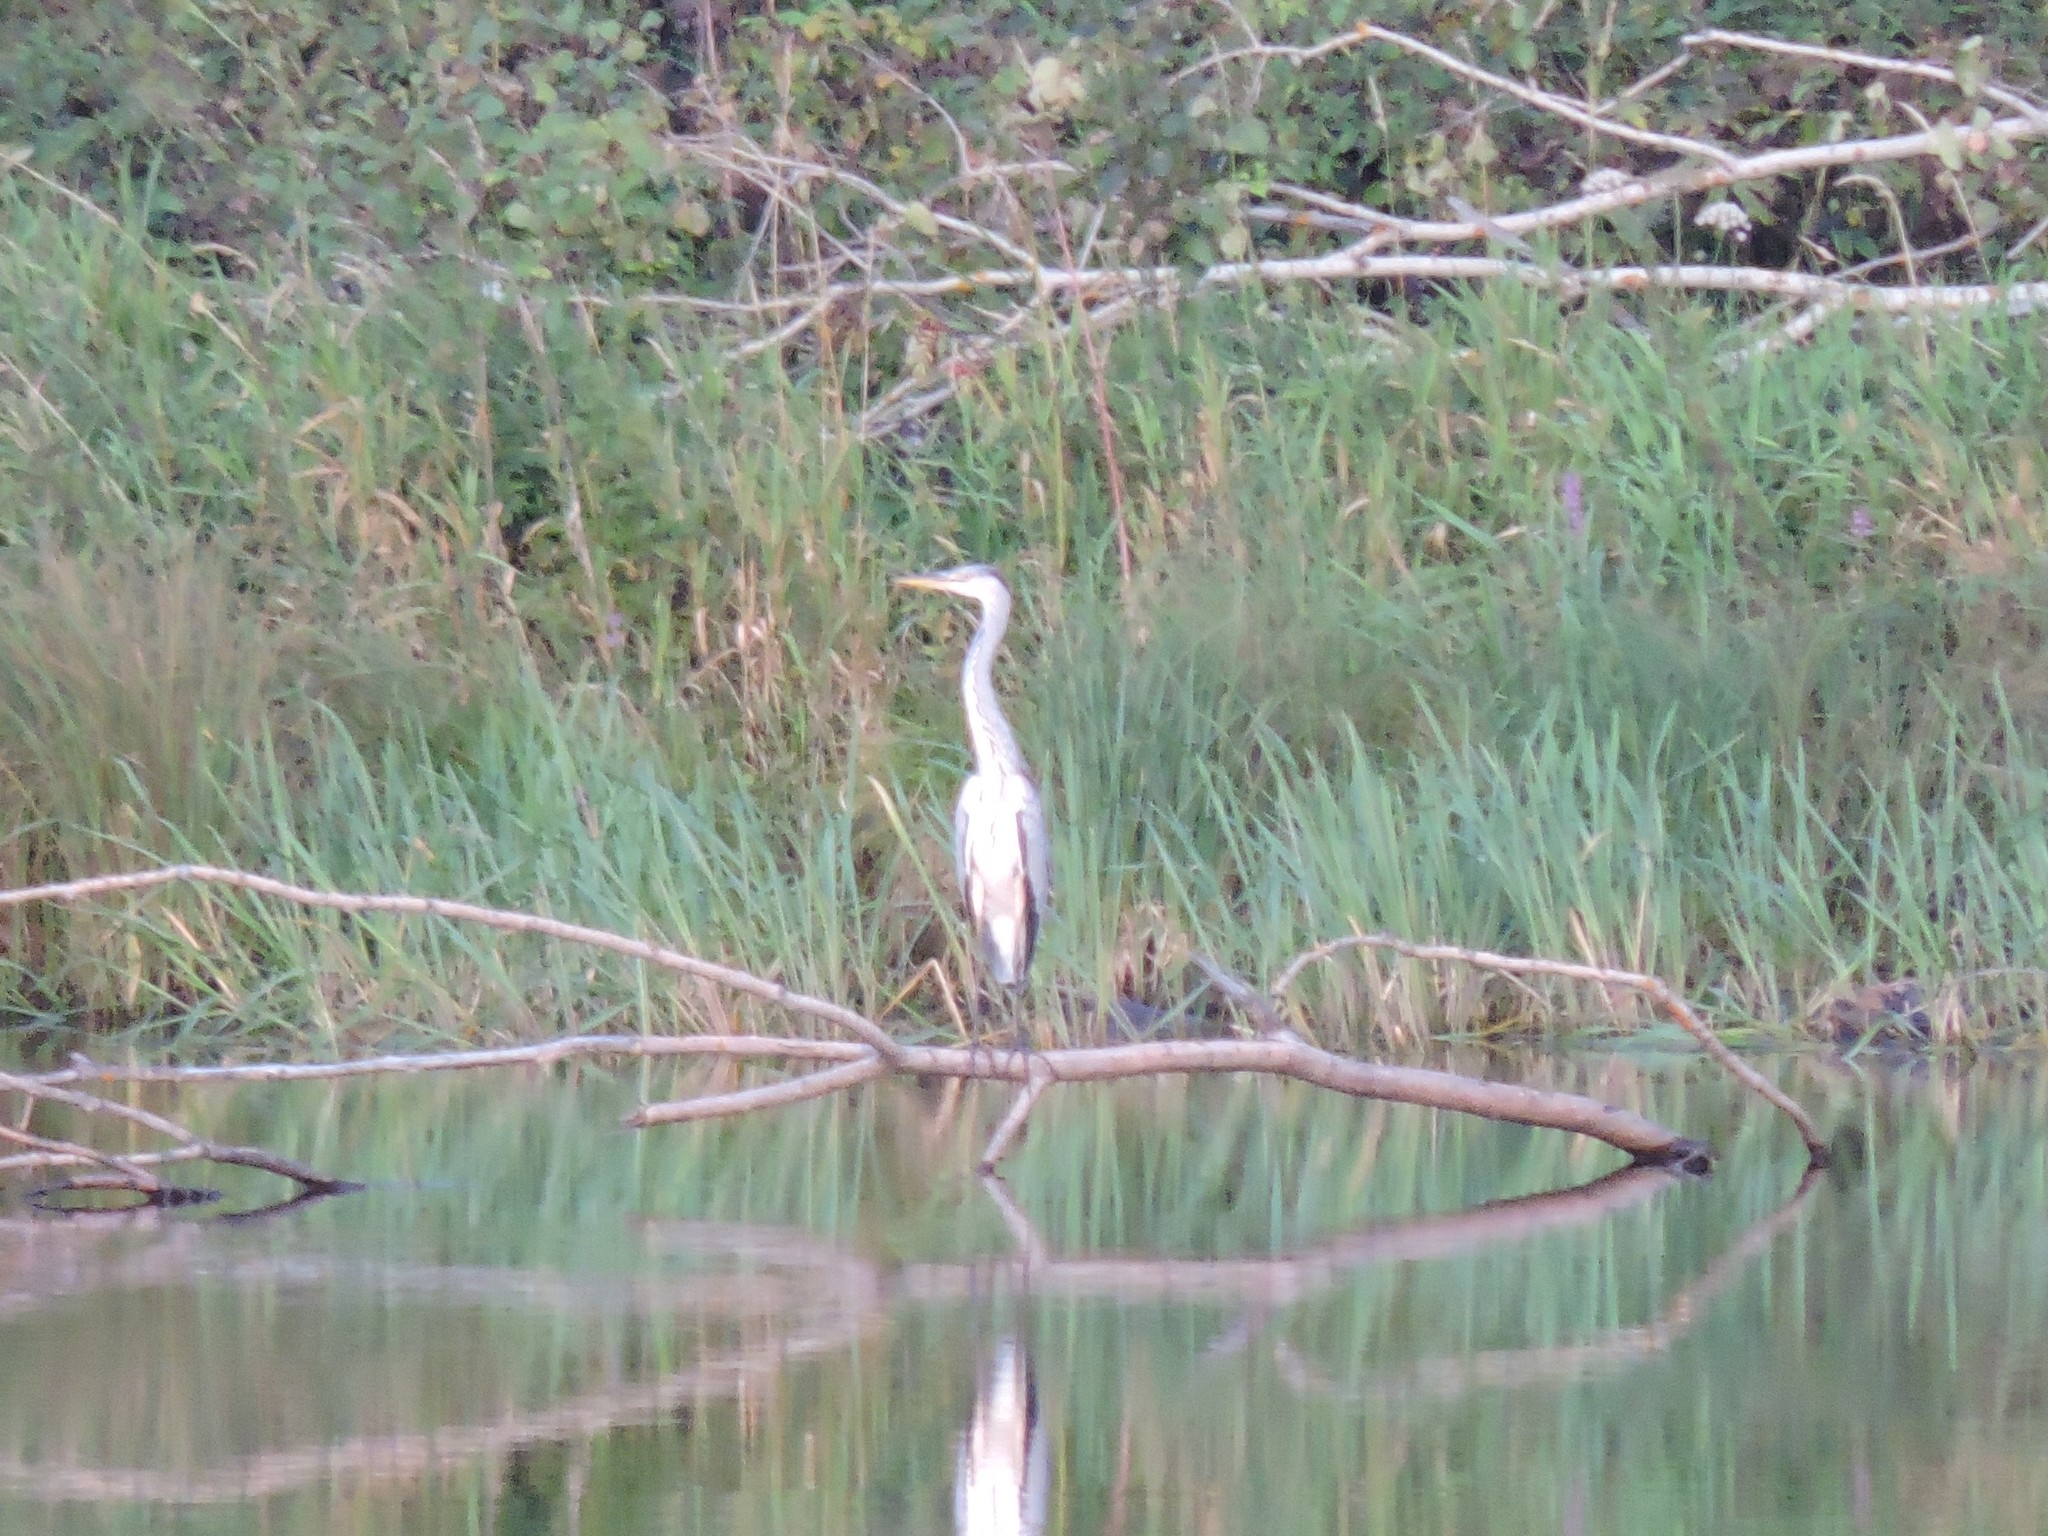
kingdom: Animalia
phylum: Chordata
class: Aves
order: Pelecaniformes
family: Ardeidae
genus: Ardea
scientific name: Ardea cinerea
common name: Grey heron
